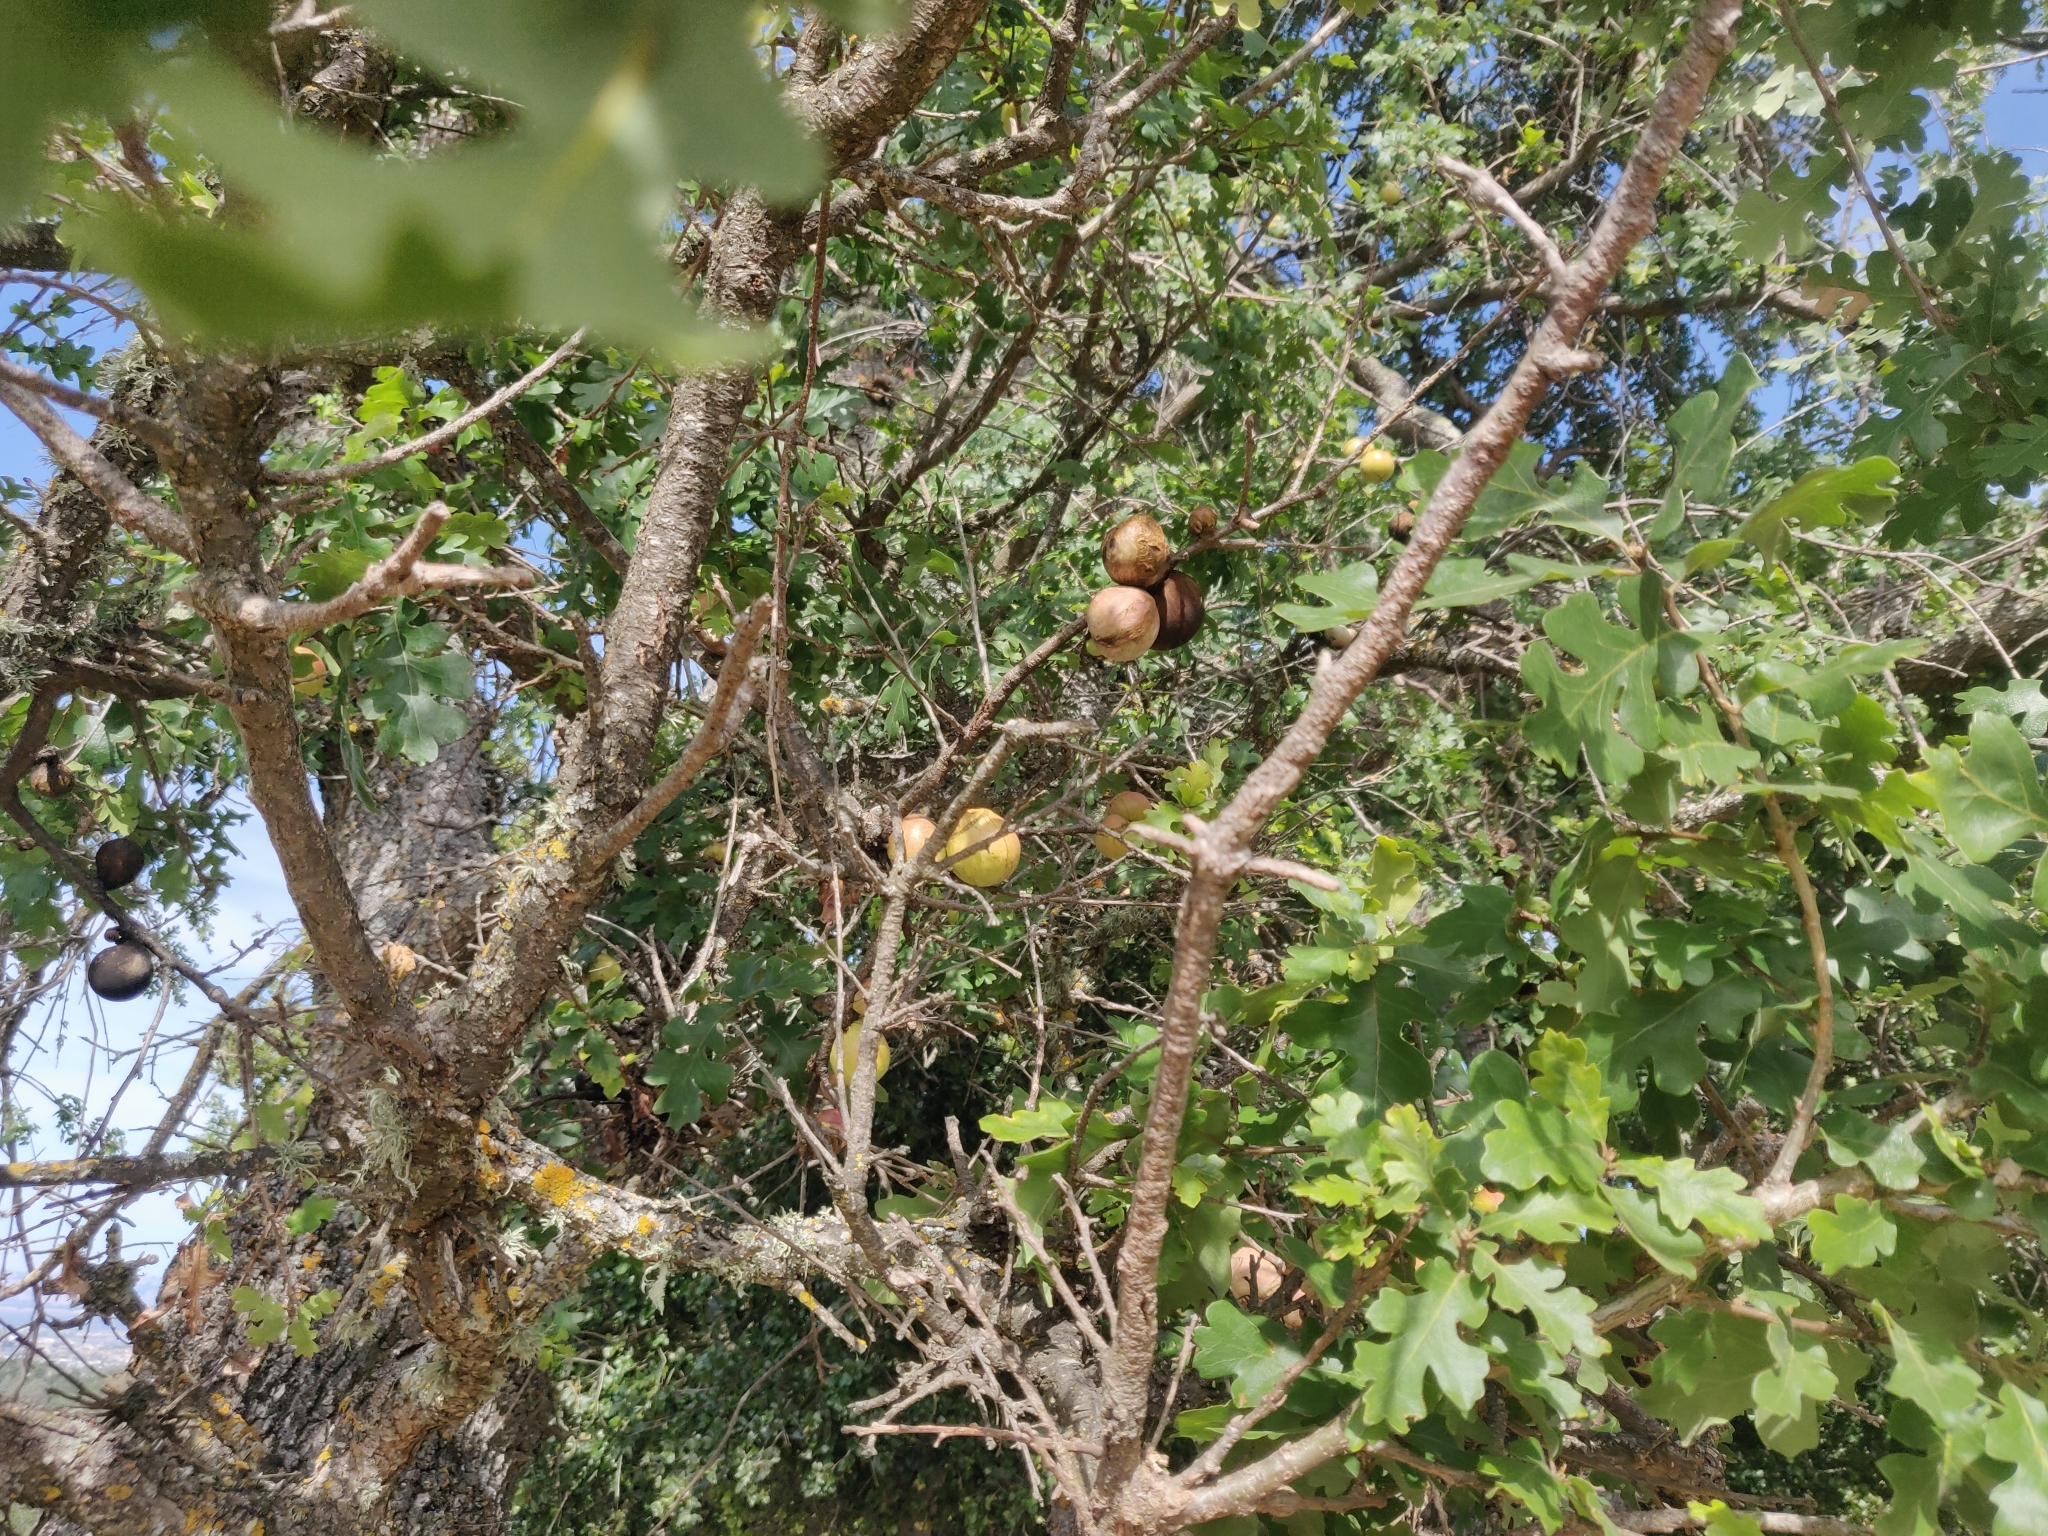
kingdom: Animalia
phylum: Arthropoda
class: Insecta
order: Hymenoptera
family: Cynipidae
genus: Andricus
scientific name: Andricus quercuscalifornicus
